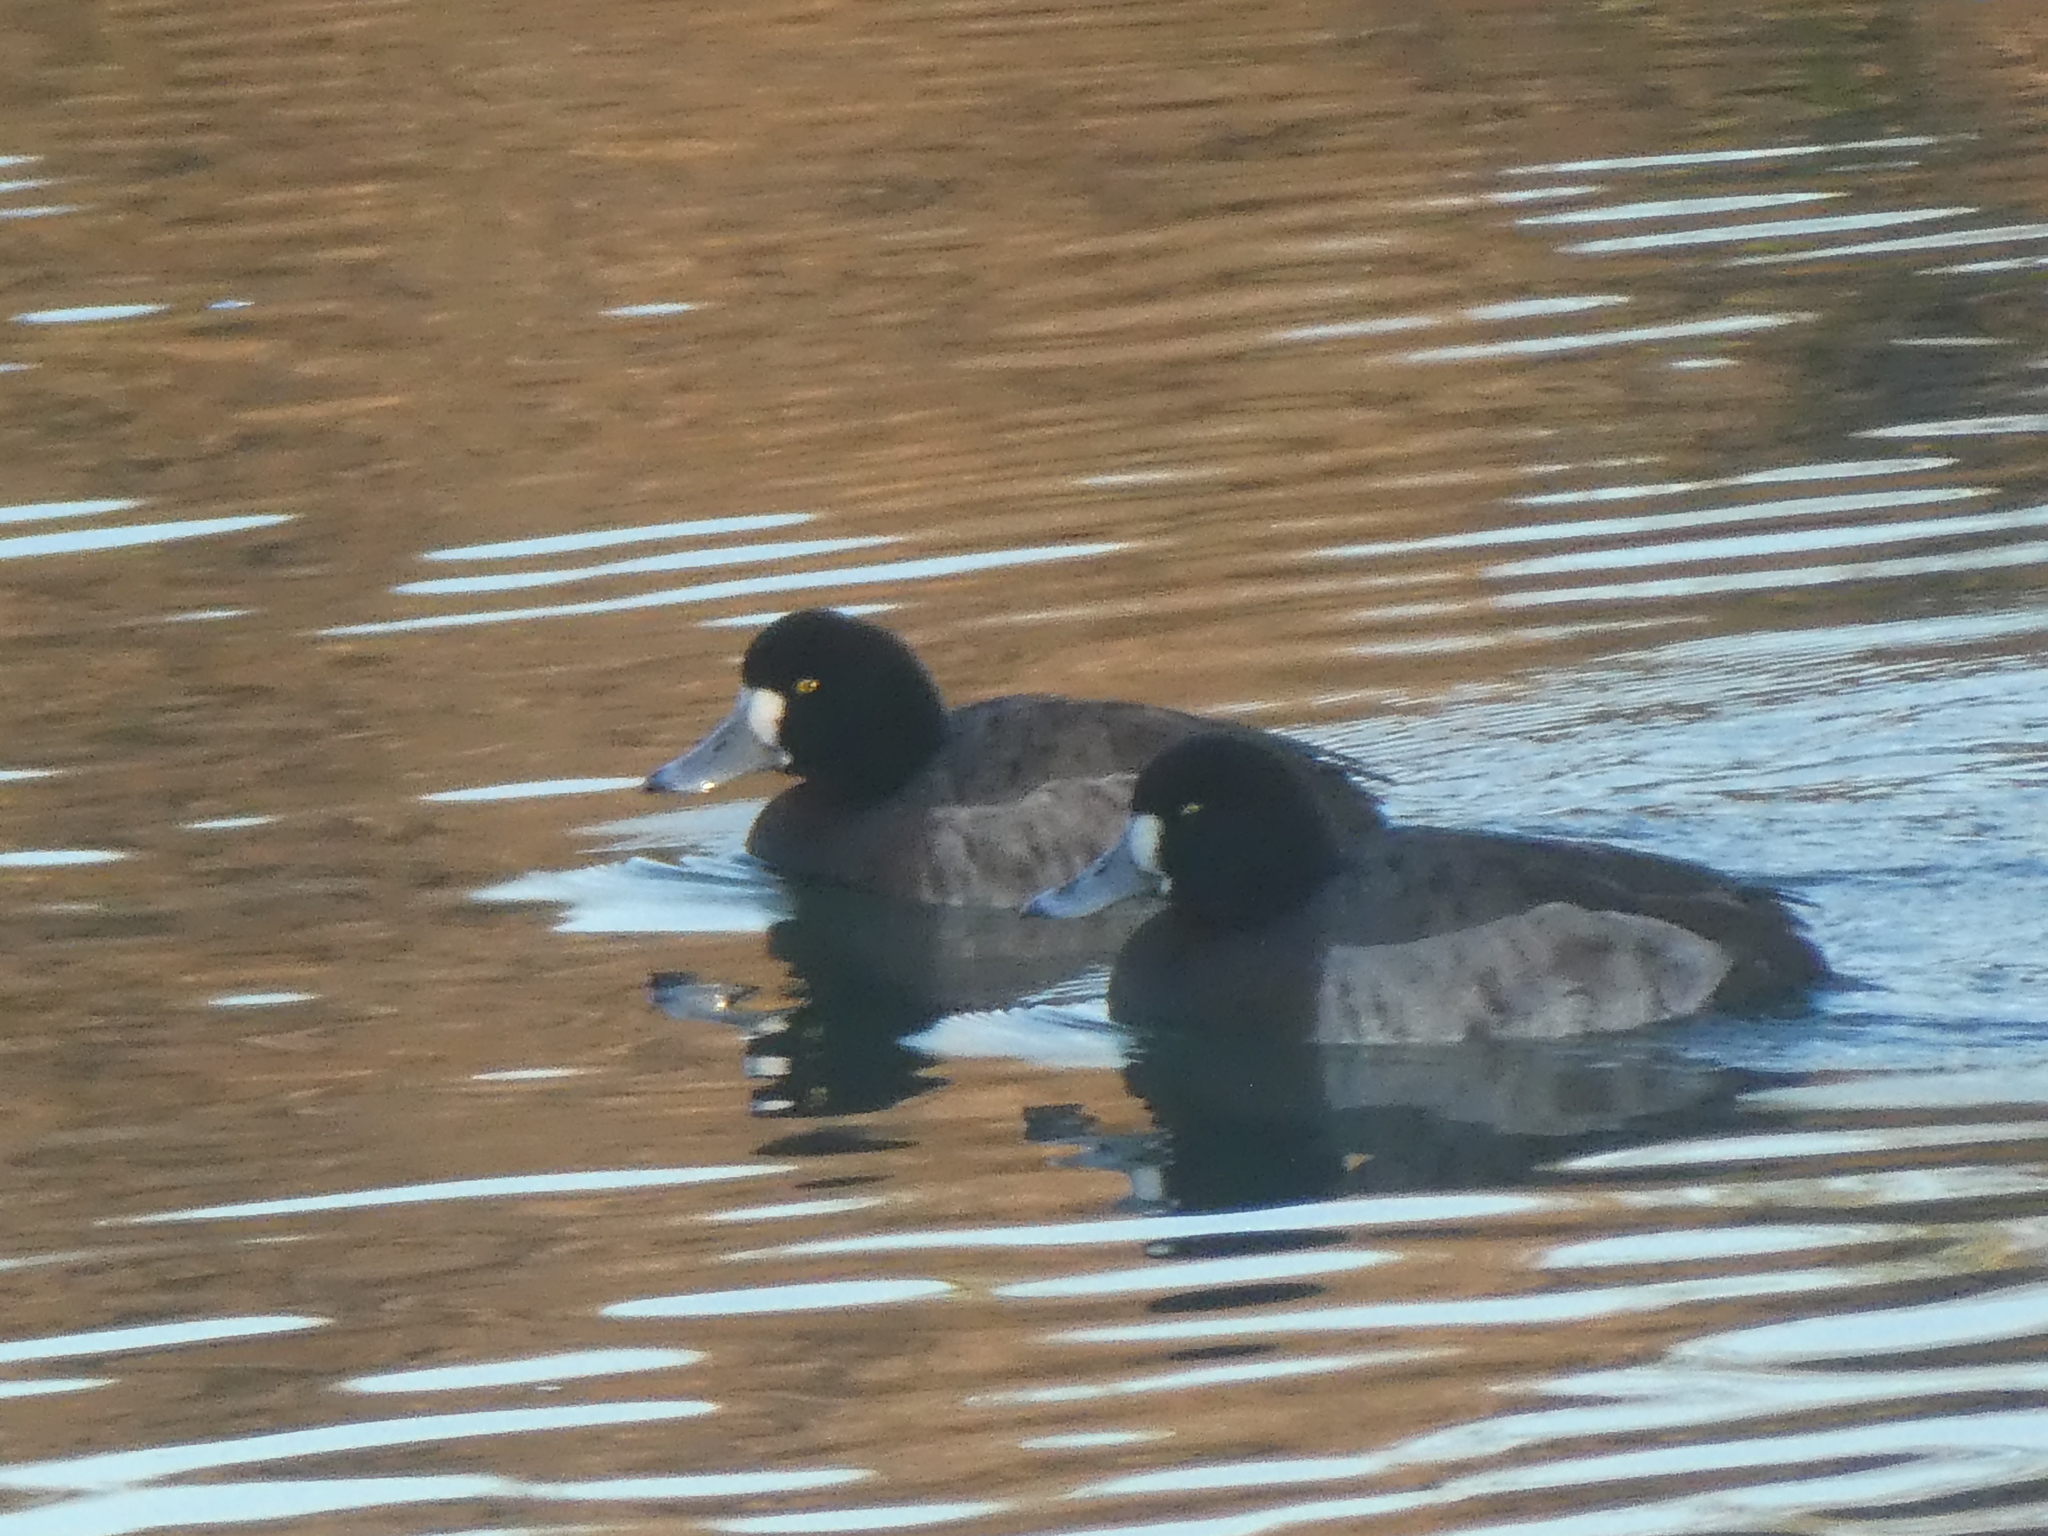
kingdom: Animalia
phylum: Chordata
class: Aves
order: Anseriformes
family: Anatidae
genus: Aythya
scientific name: Aythya marila
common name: Greater scaup
